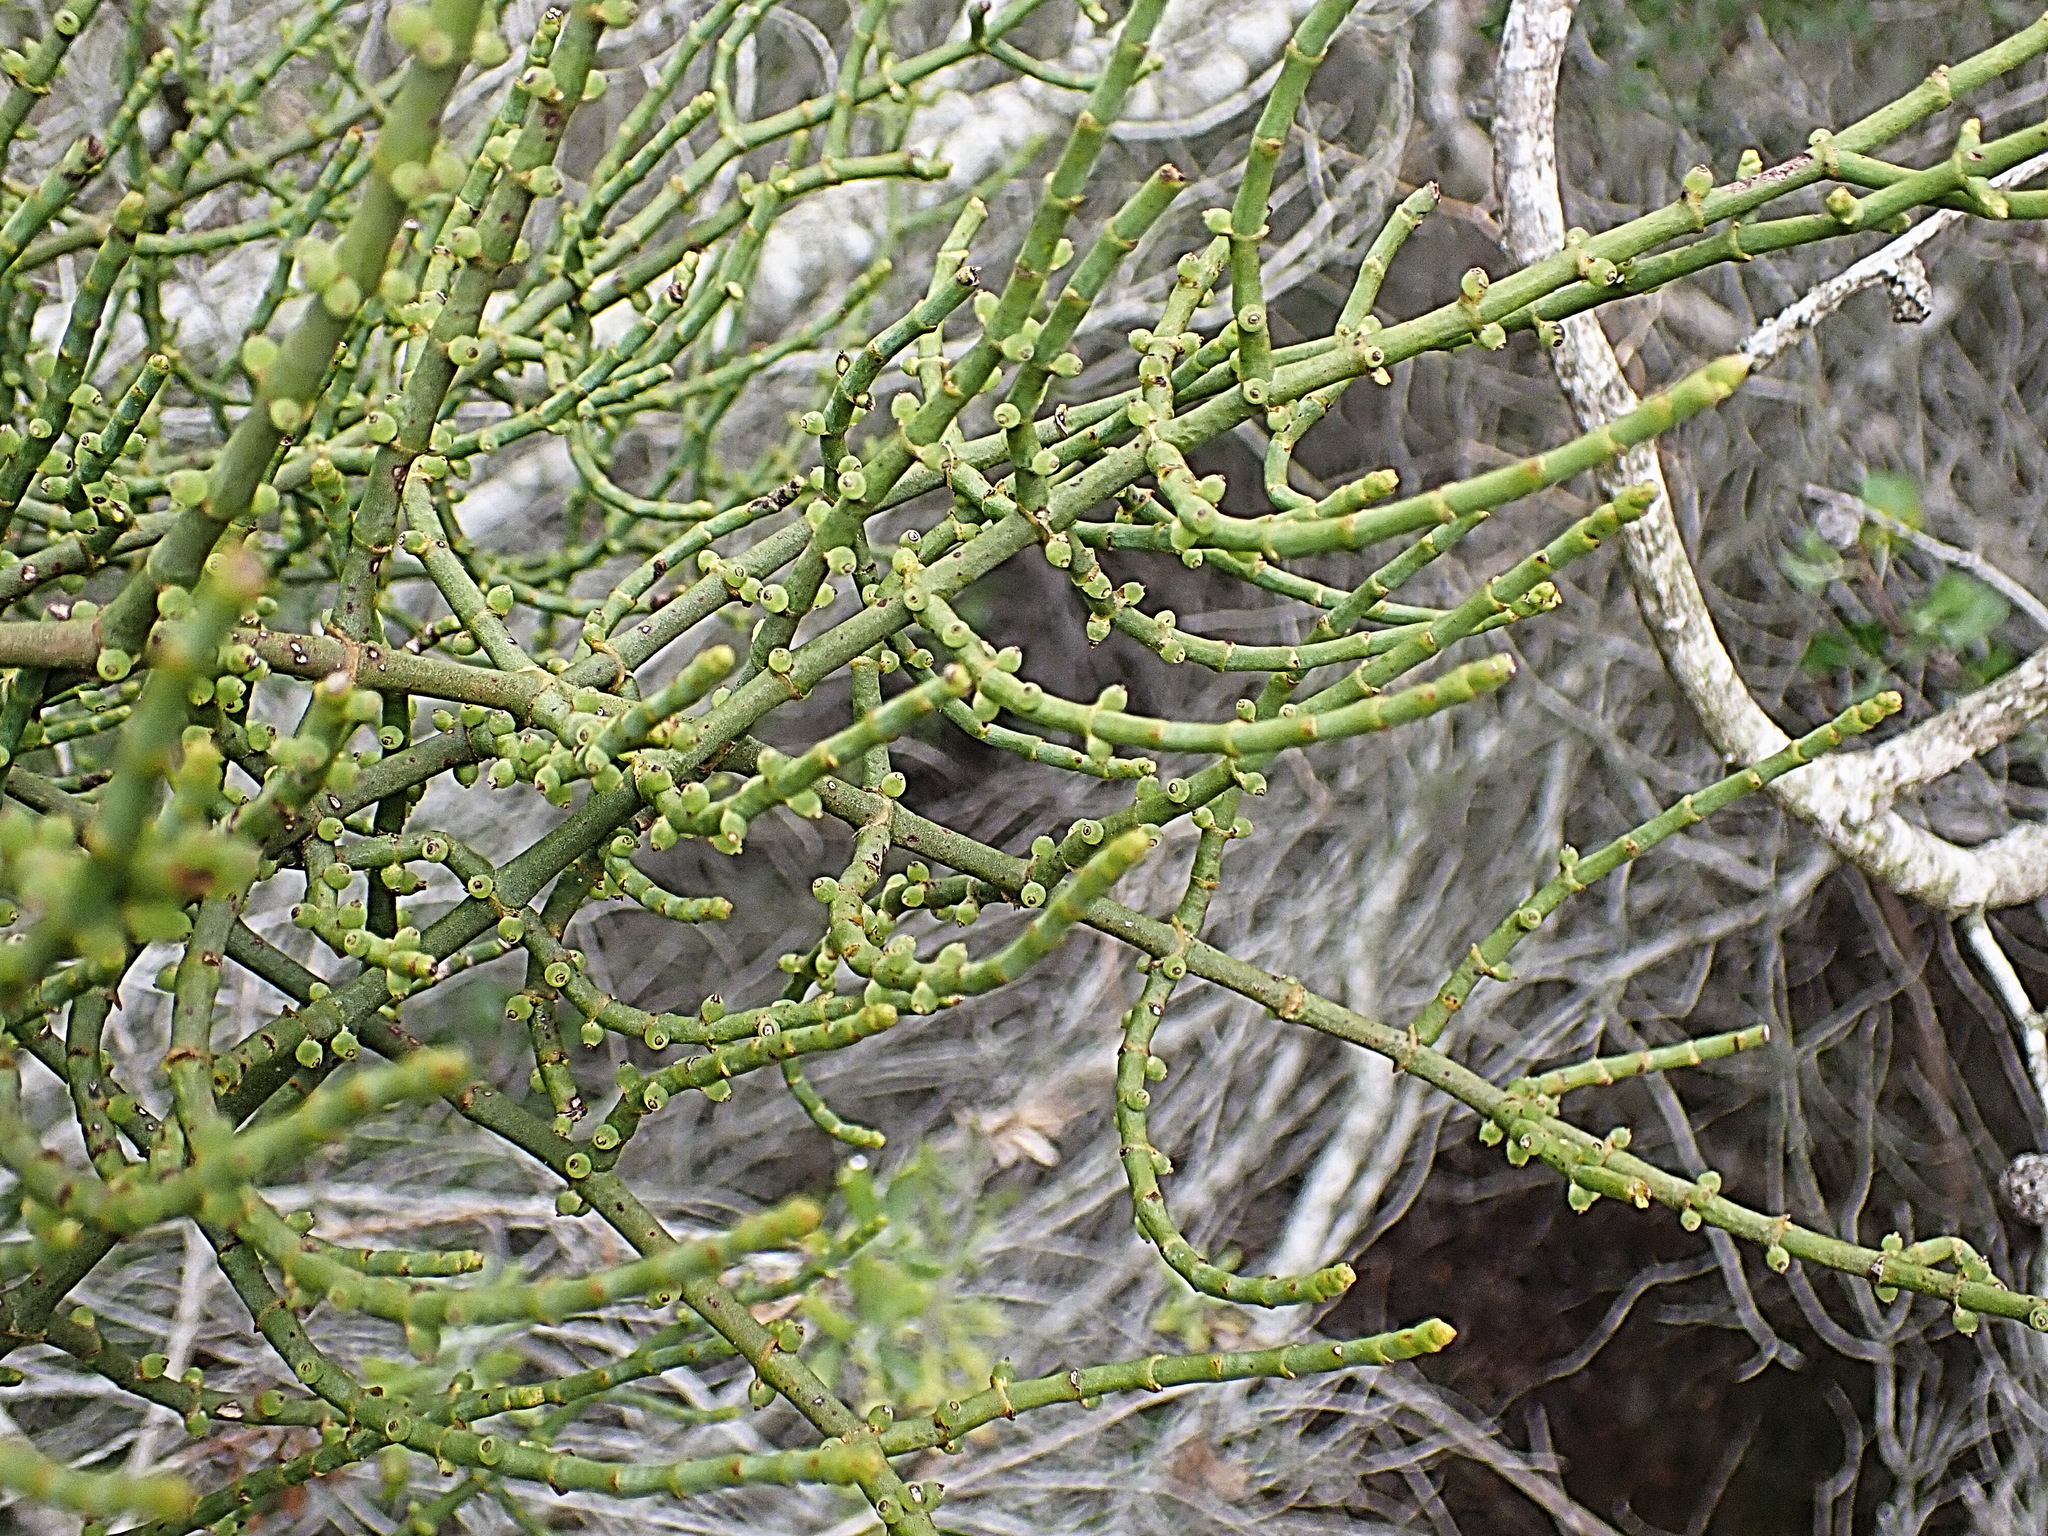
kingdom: Plantae
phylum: Tracheophyta
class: Magnoliopsida
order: Santalales
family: Viscaceae
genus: Viscum
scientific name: Viscum capense
